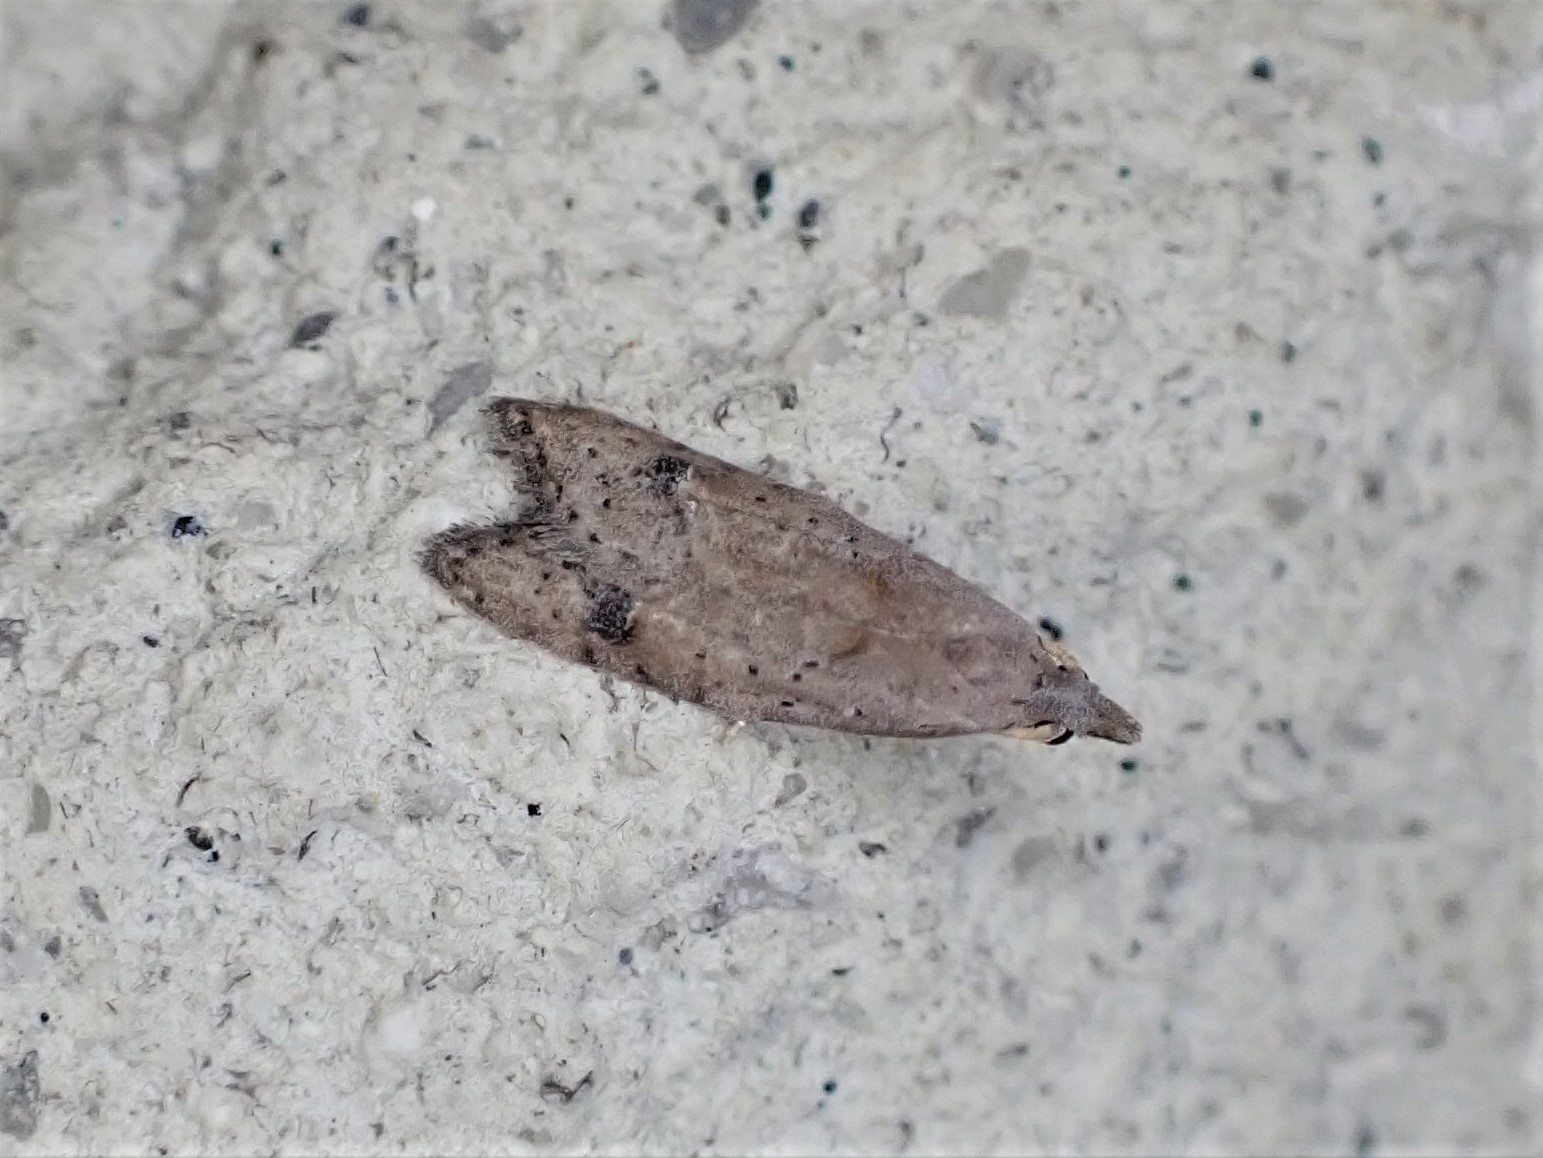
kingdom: Animalia
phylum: Arthropoda
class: Insecta
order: Lepidoptera
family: Carposinidae
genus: Carposina
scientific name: Carposina rubophaga
